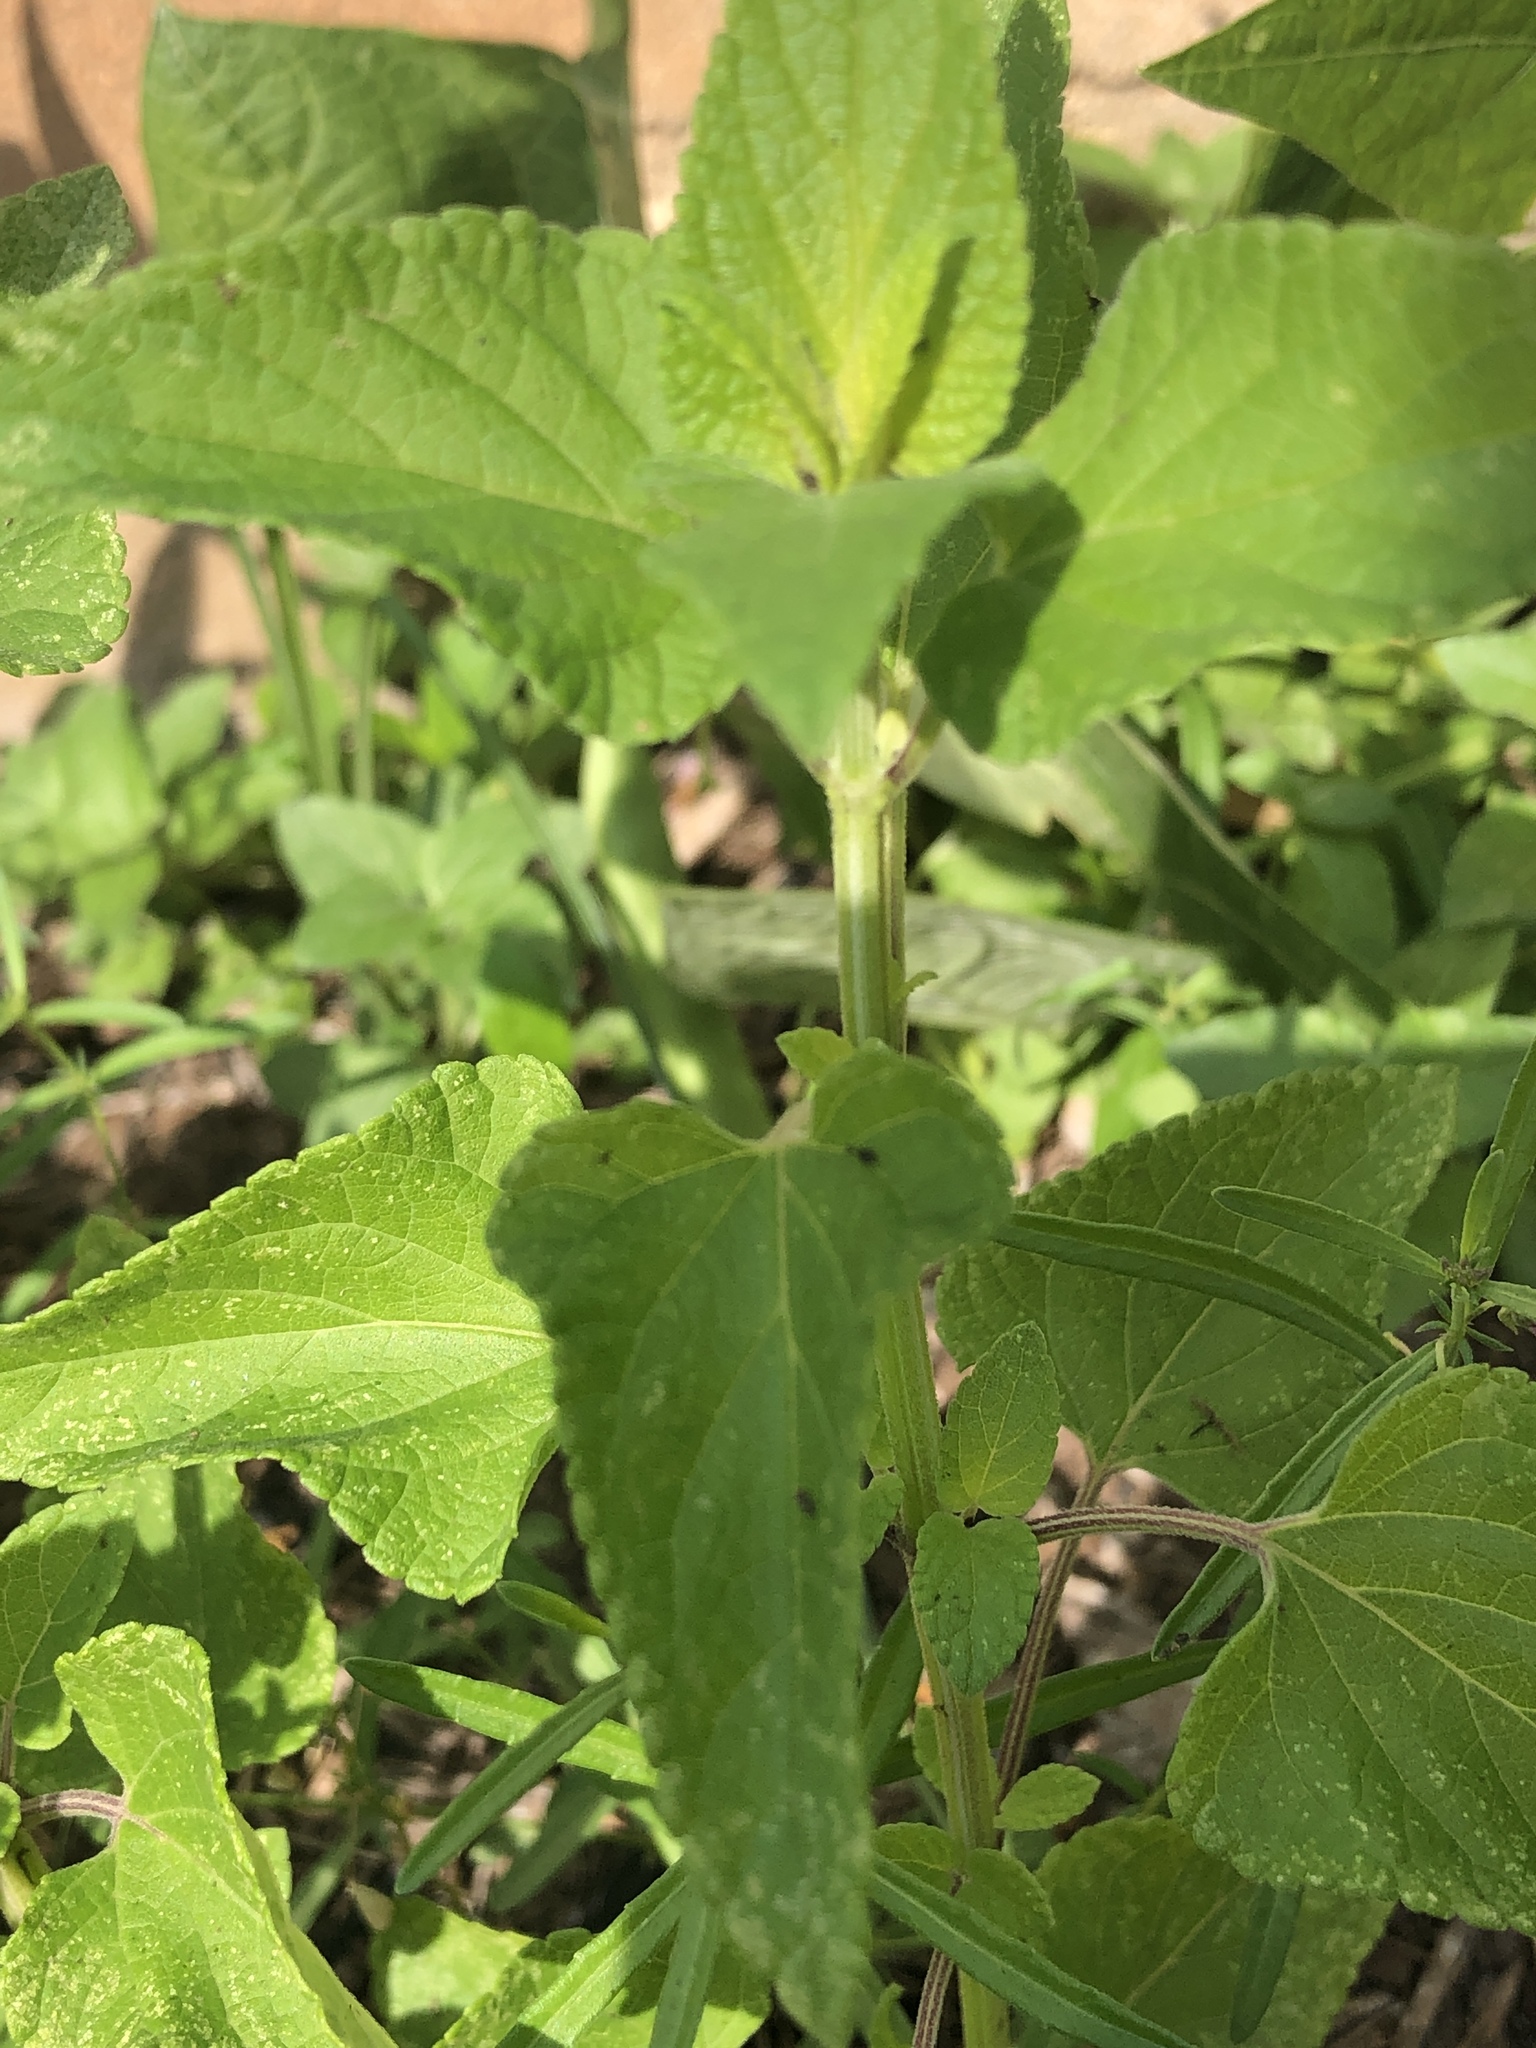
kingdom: Plantae
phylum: Tracheophyta
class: Magnoliopsida
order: Lamiales
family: Lamiaceae
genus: Salvia
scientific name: Salvia coccinea
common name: Blood sage
